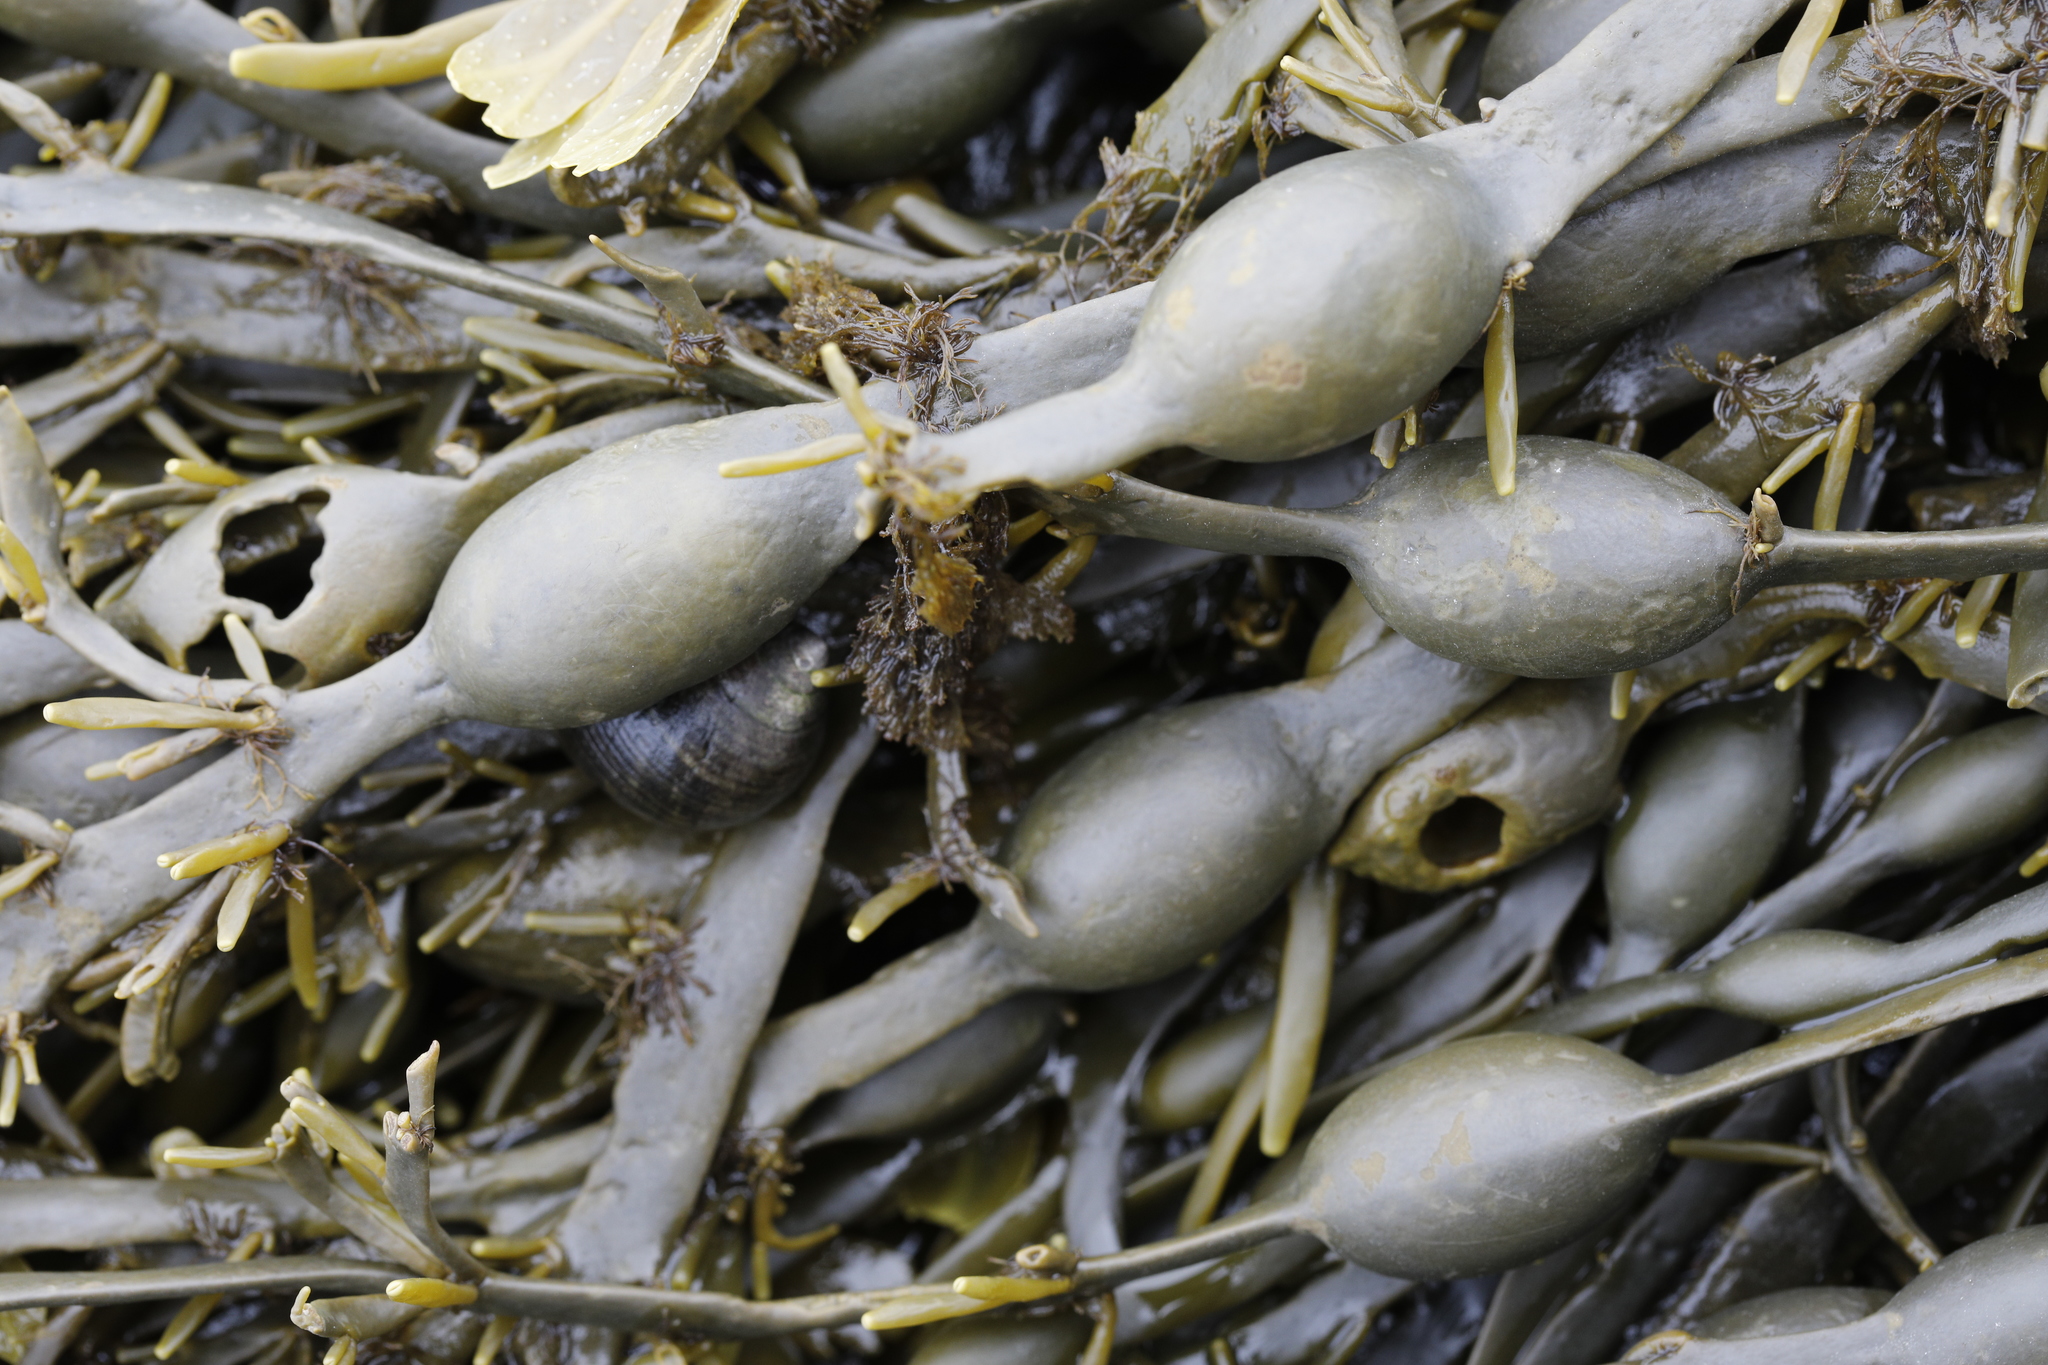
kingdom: Chromista
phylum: Ochrophyta
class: Phaeophyceae
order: Fucales
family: Fucaceae
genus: Ascophyllum
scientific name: Ascophyllum nodosum
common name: Knotted wrack
